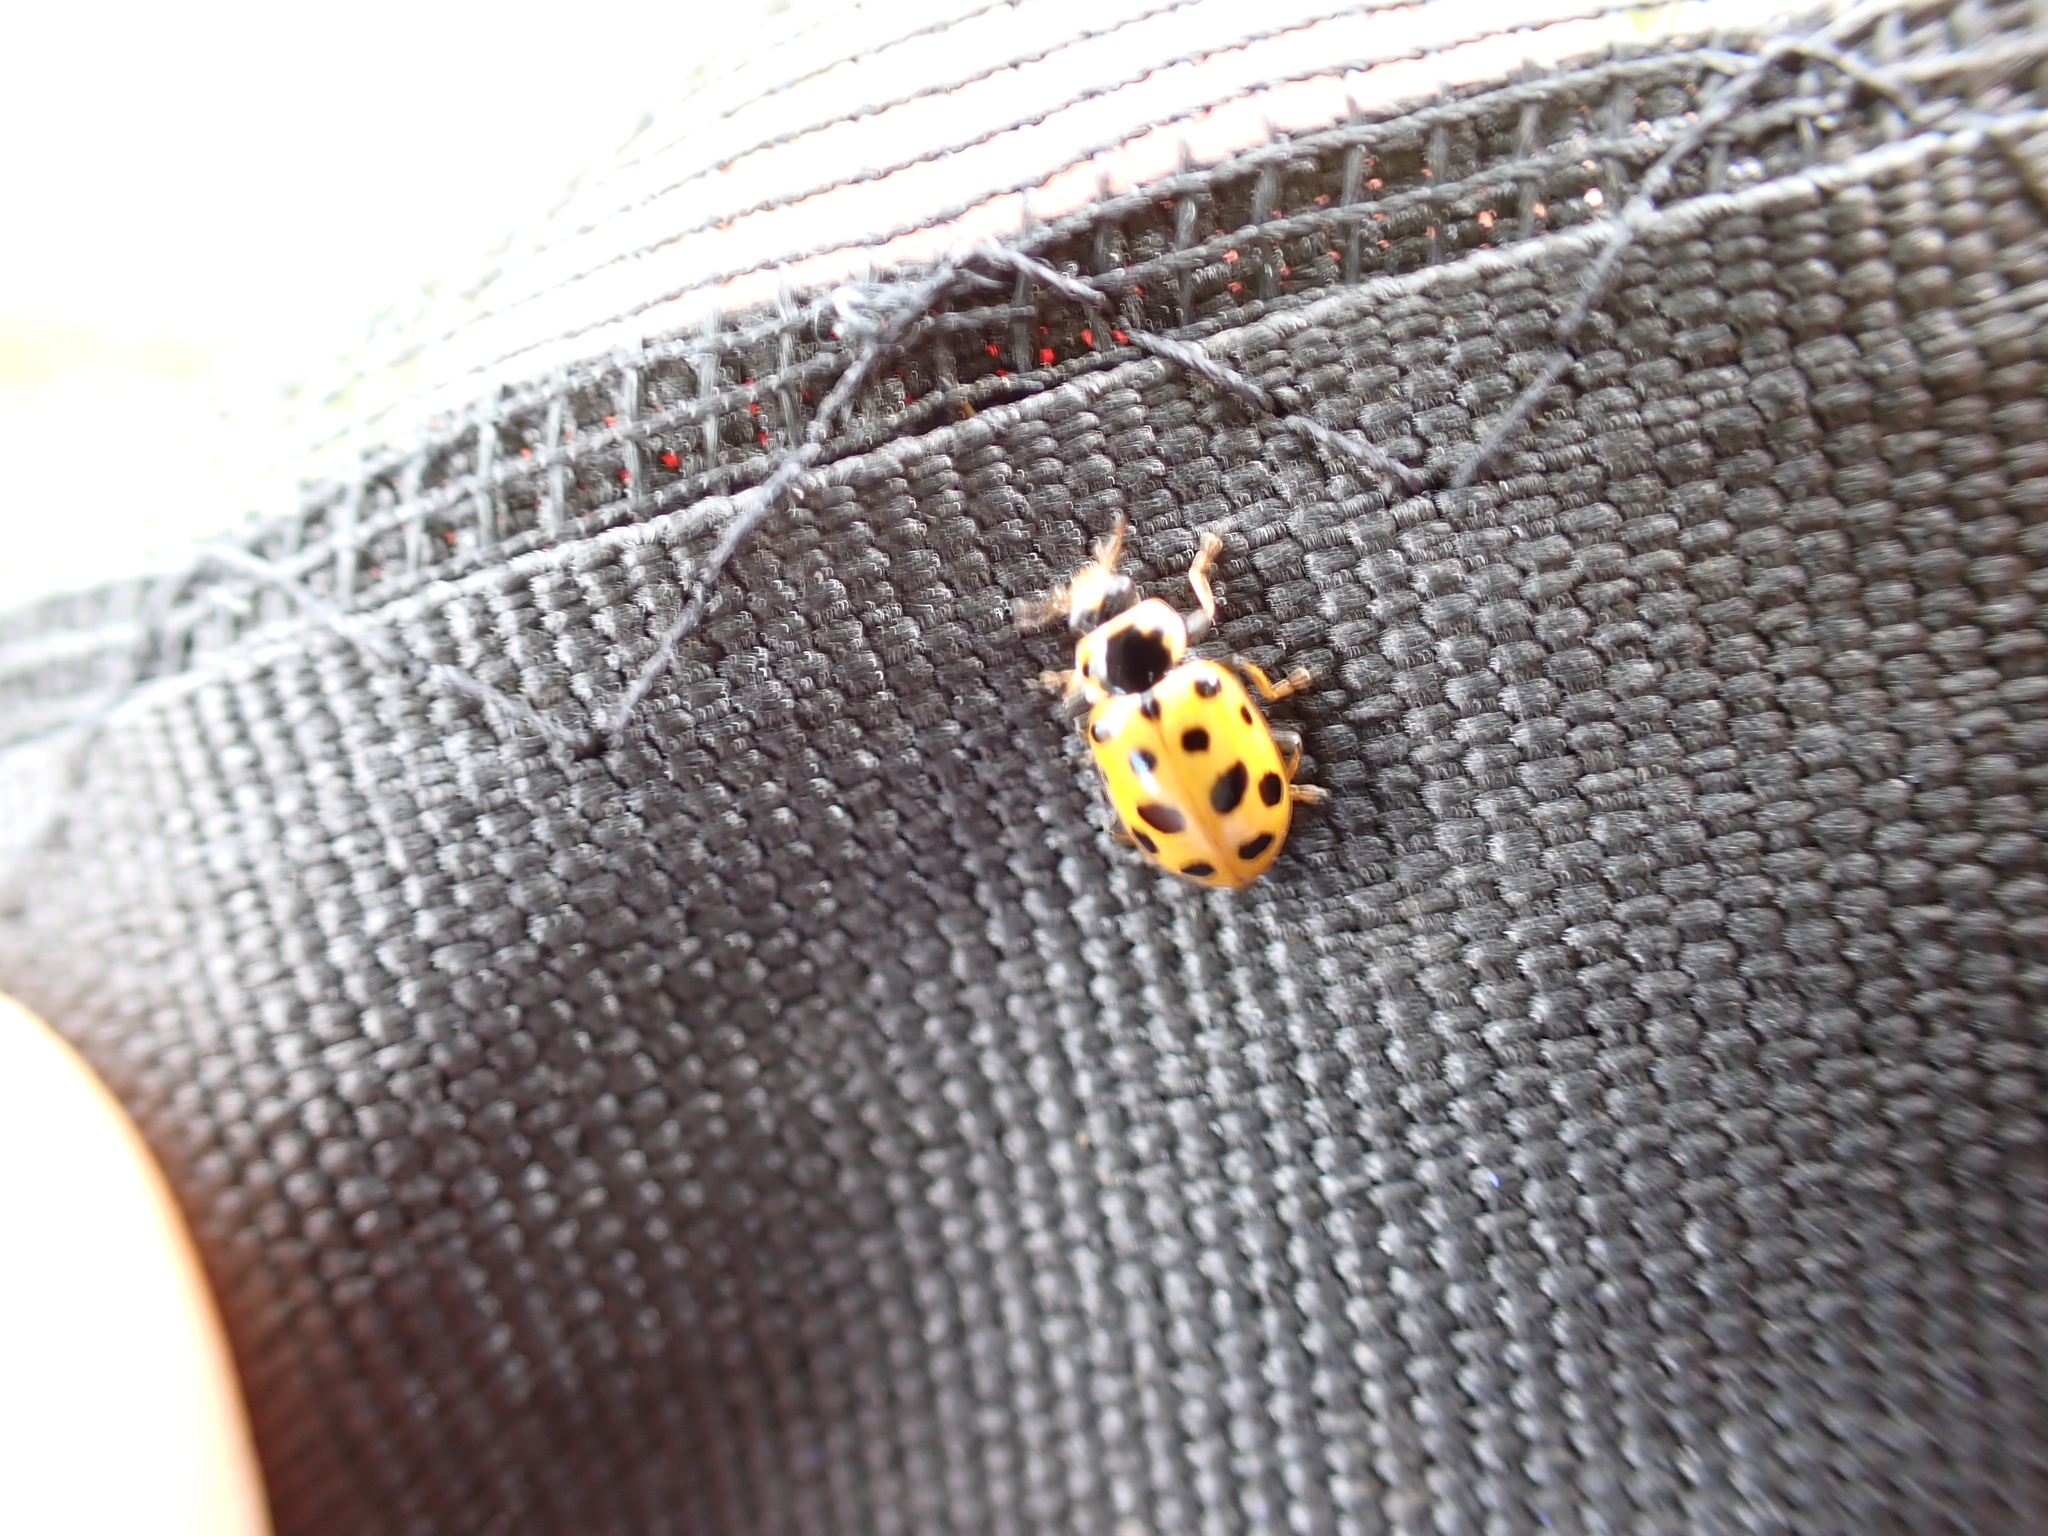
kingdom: Animalia
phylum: Arthropoda
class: Insecta
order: Coleoptera
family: Coccinellidae
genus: Hippodamia
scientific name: Hippodamia tredecimpunctata
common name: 13-spot ladybird
